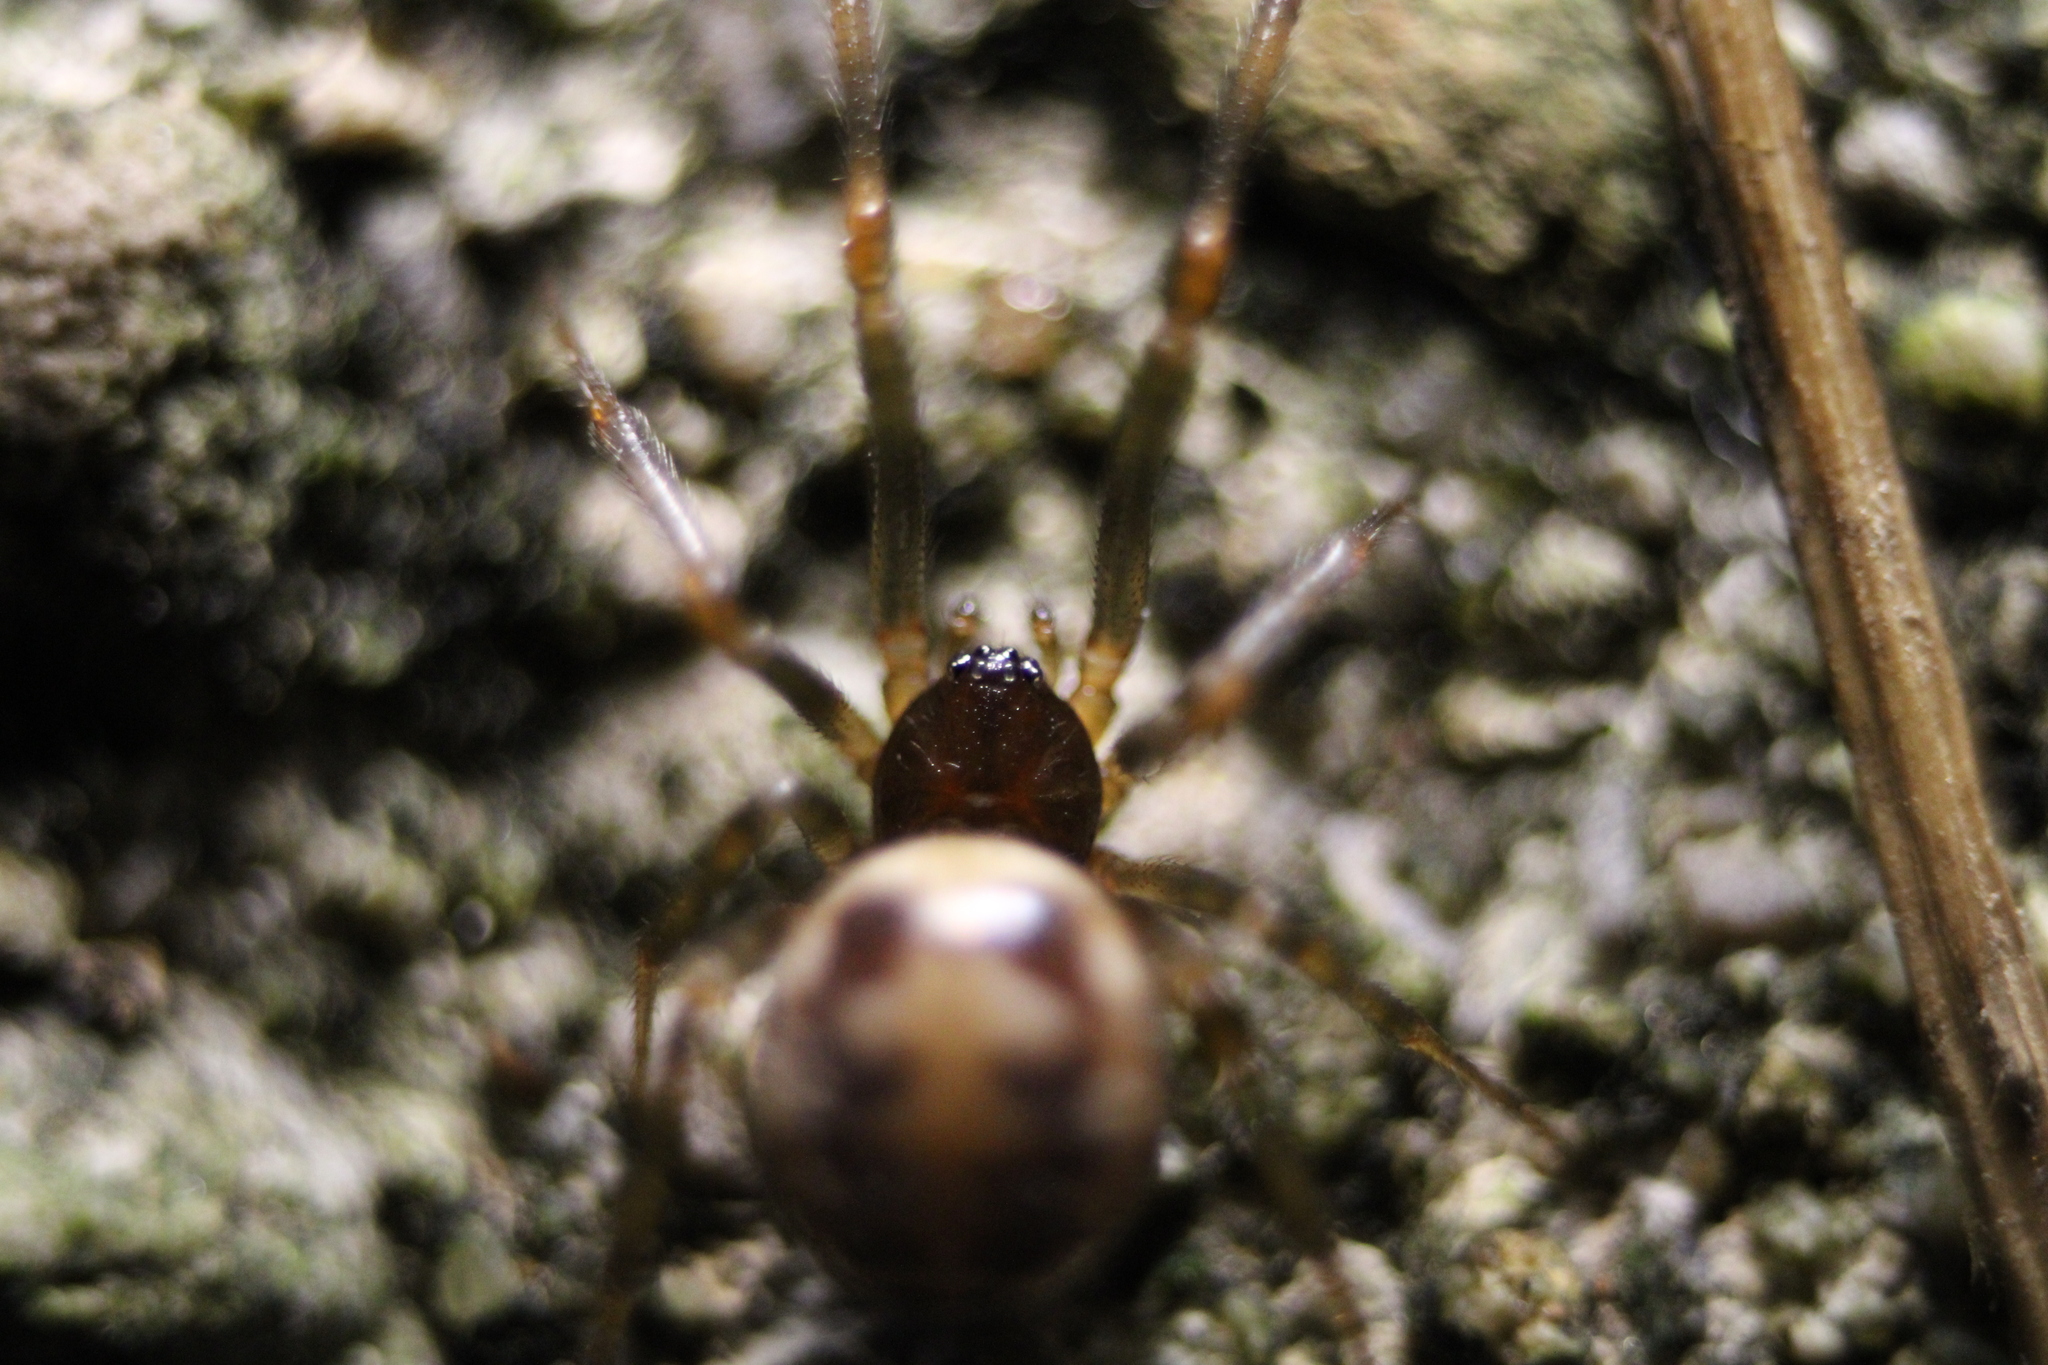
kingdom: Animalia
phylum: Arthropoda
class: Arachnida
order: Araneae
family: Theridiidae
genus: Steatoda
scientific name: Steatoda triangulosa
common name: Triangulate bud spider
